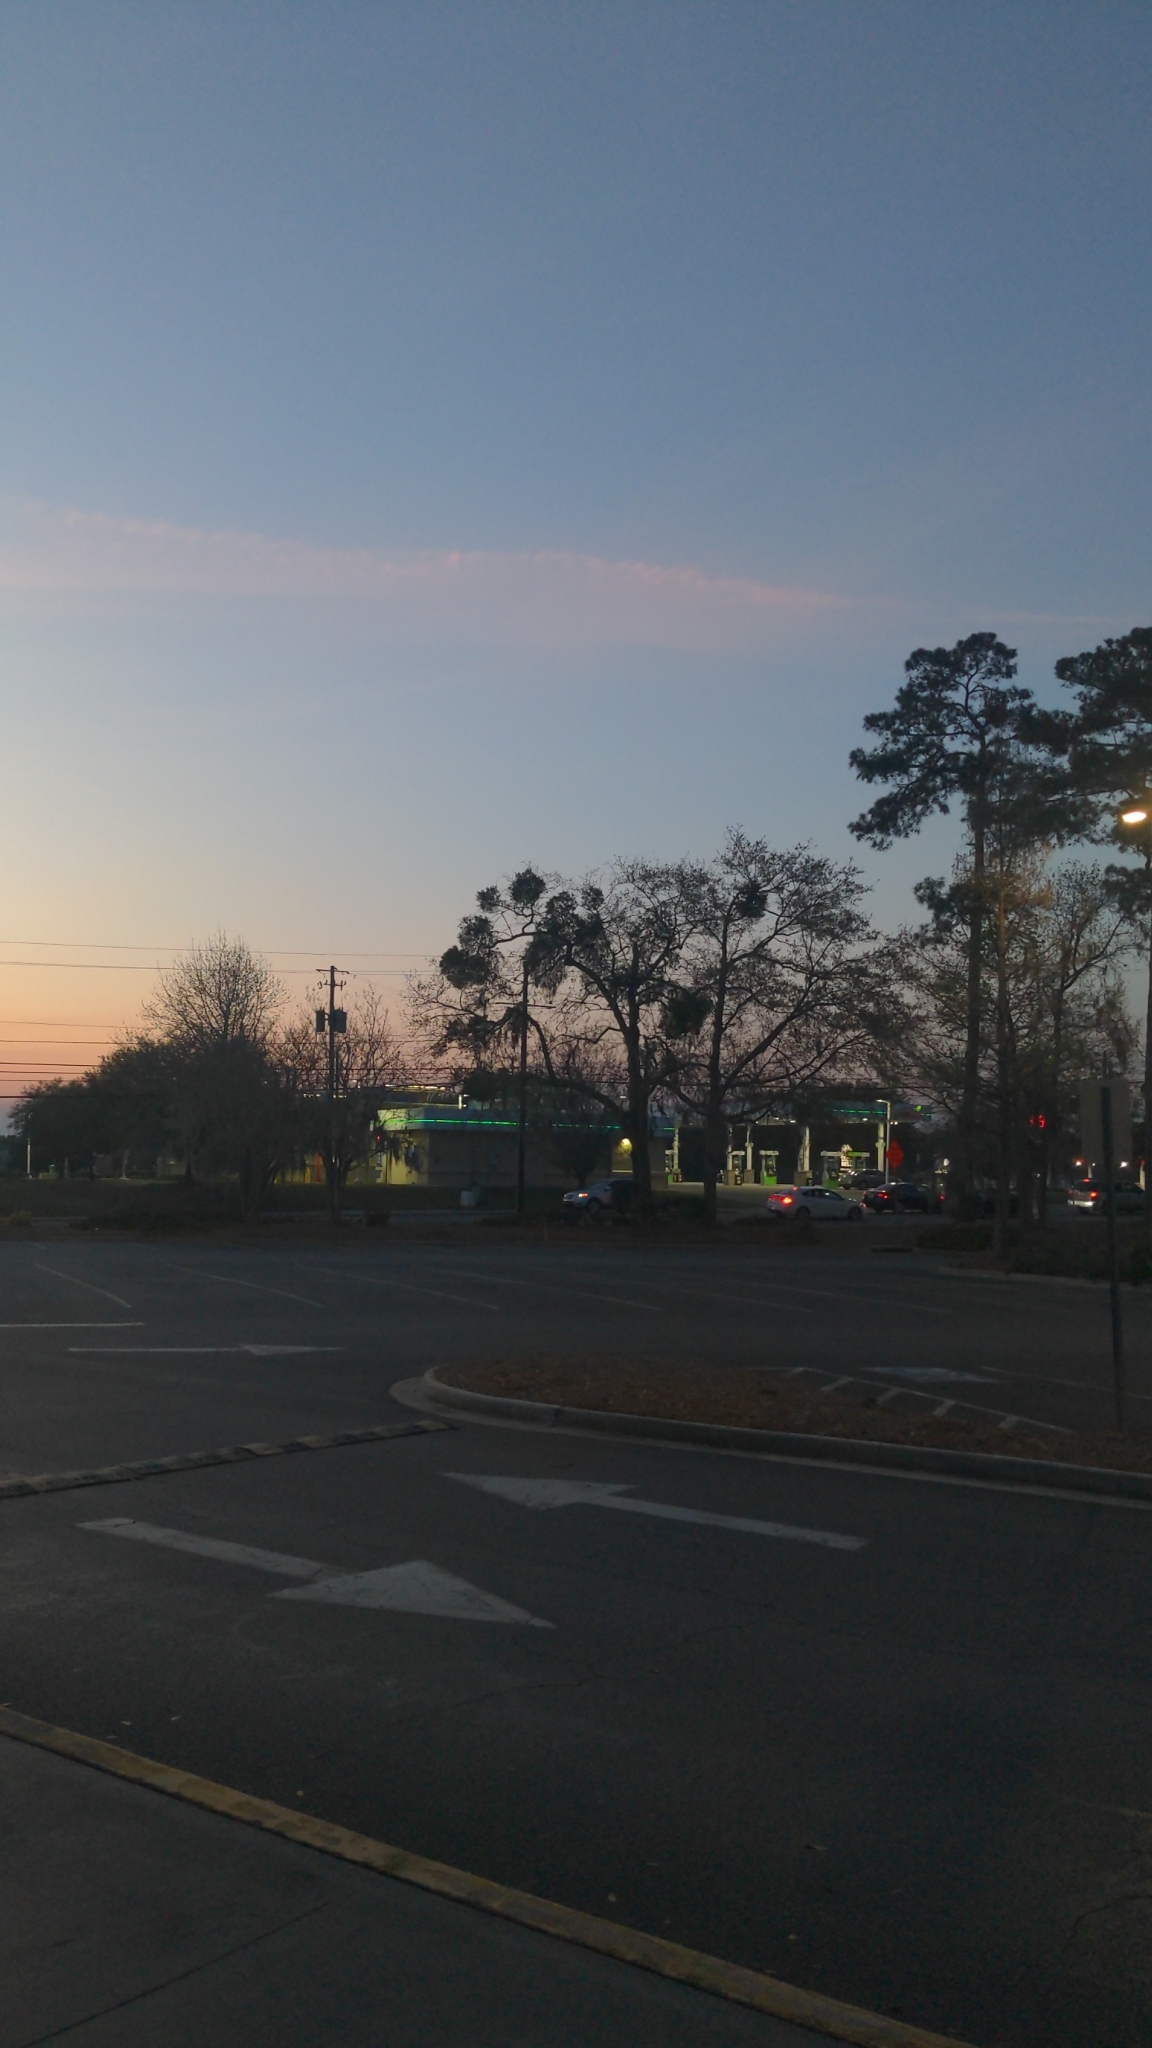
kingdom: Plantae
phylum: Tracheophyta
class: Magnoliopsida
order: Santalales
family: Viscaceae
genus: Phoradendron
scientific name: Phoradendron leucarpum
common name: Pacific mistletoe
